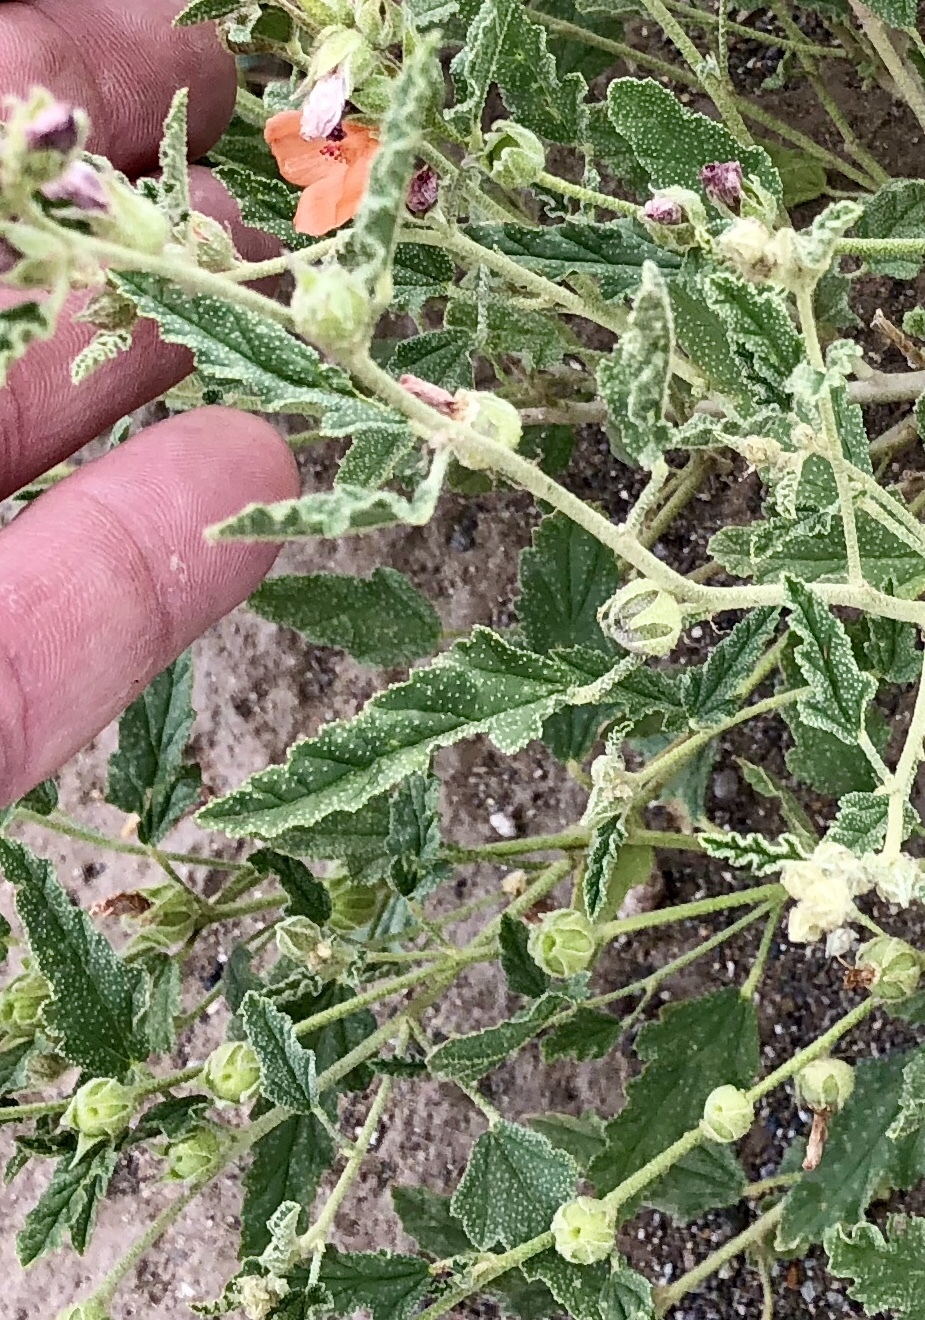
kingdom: Plantae
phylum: Tracheophyta
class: Magnoliopsida
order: Malvales
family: Malvaceae
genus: Sphaeralcea
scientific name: Sphaeralcea angustifolia
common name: Copper globe-mallow
